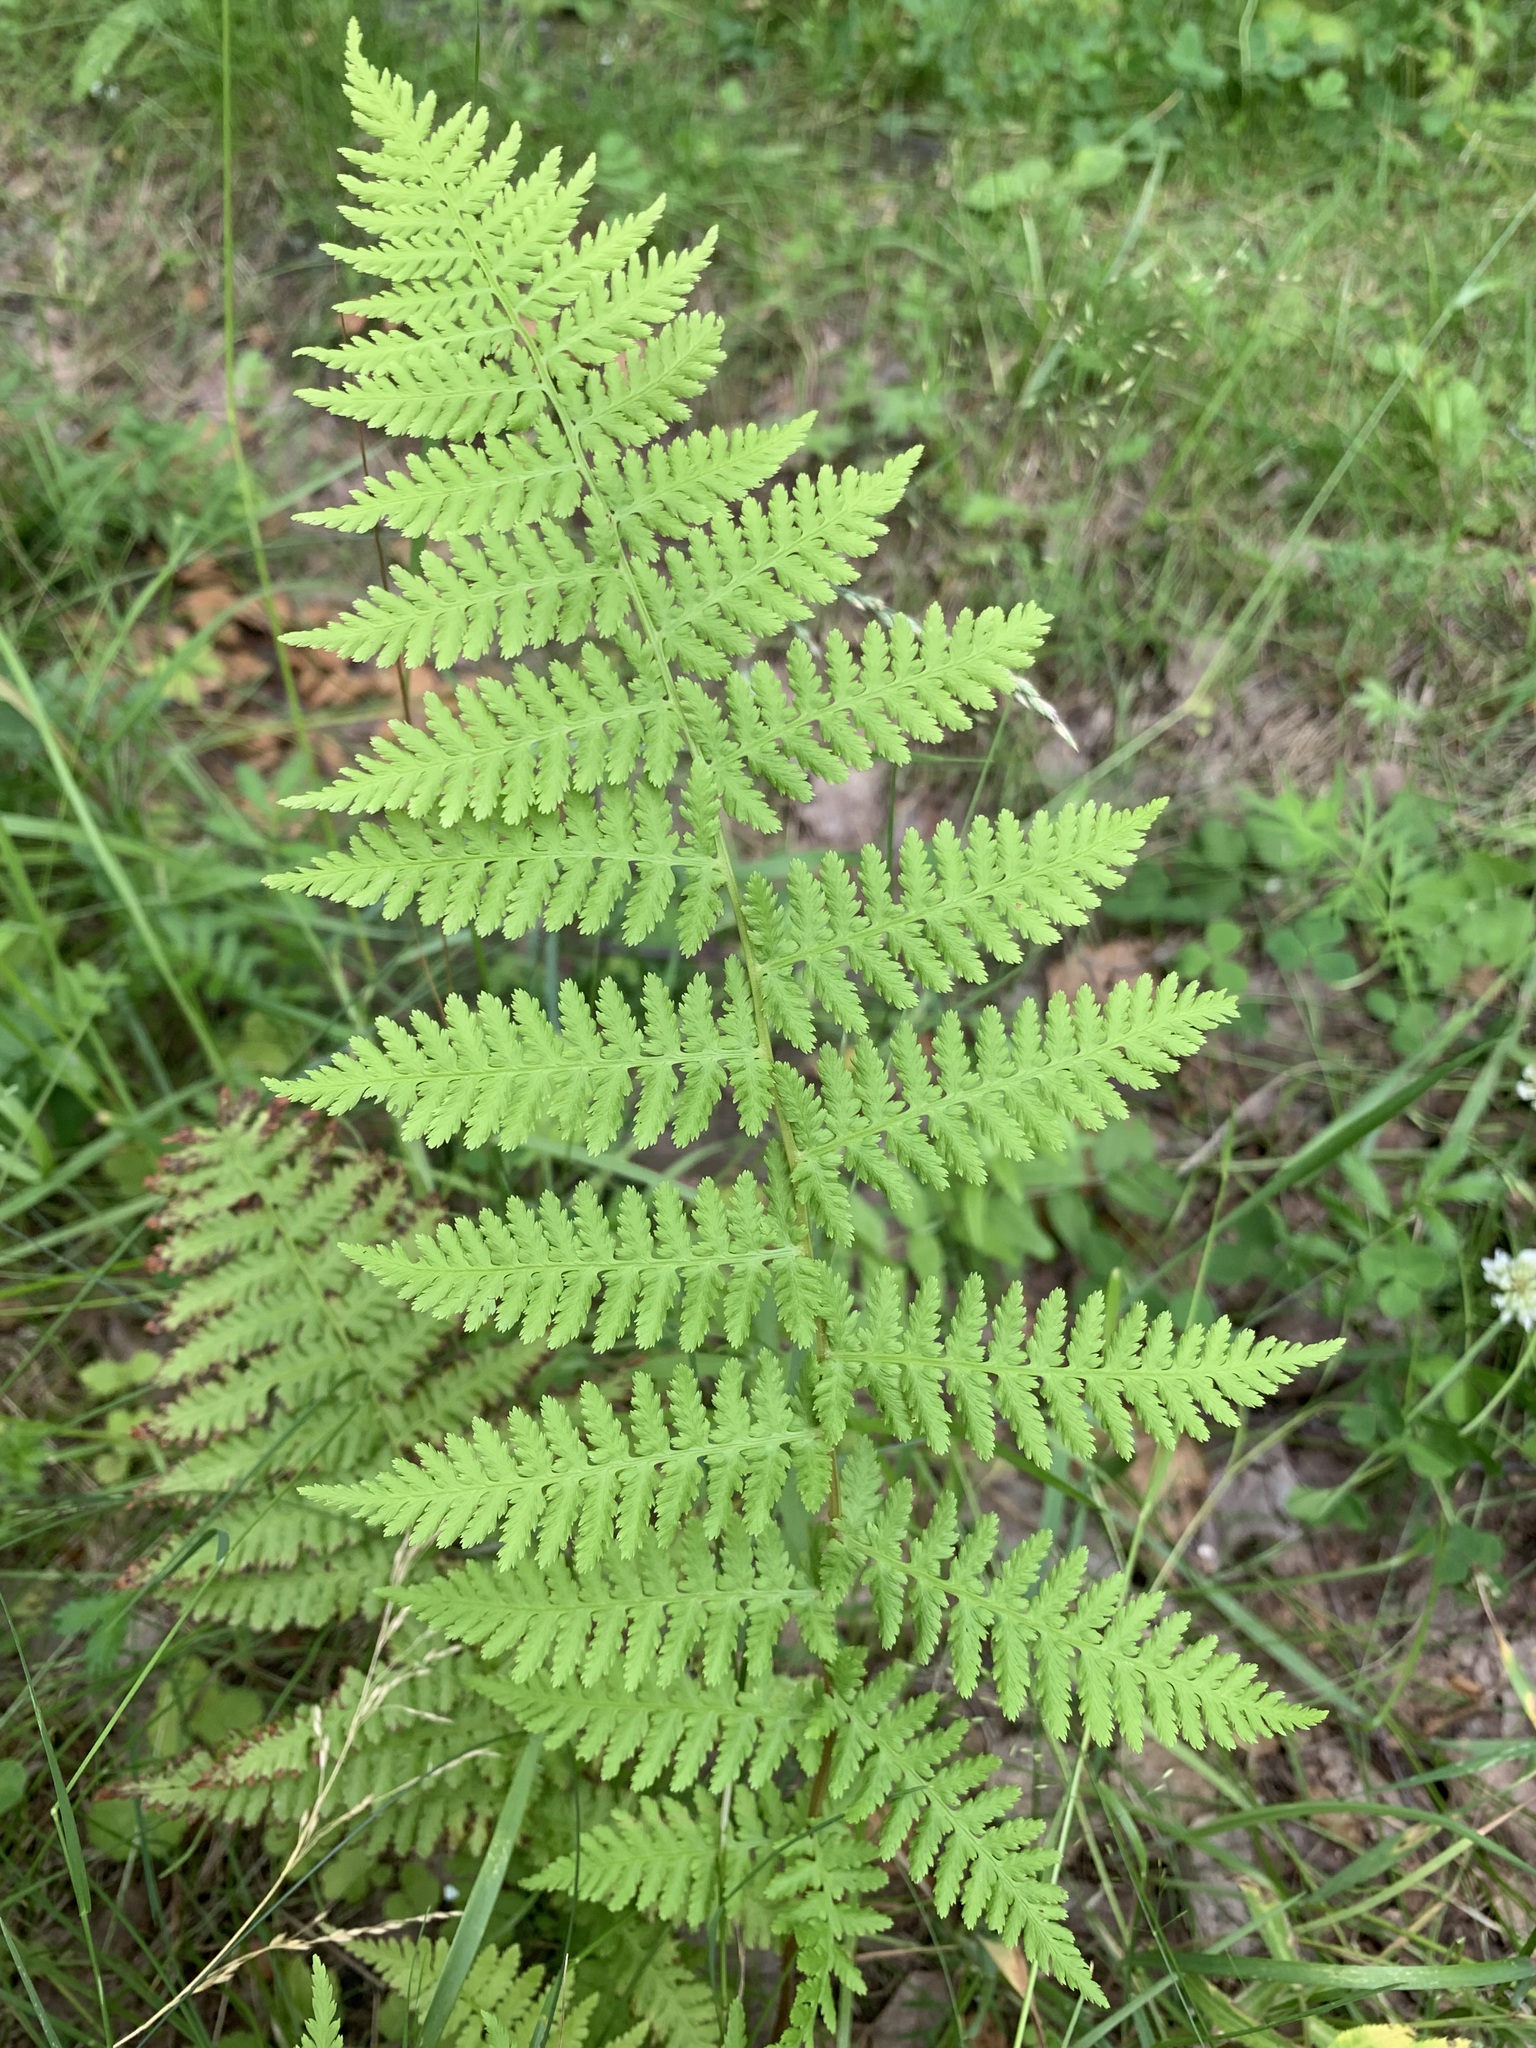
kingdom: Plantae
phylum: Tracheophyta
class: Polypodiopsida
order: Polypodiales
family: Athyriaceae
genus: Athyrium
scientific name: Athyrium filix-femina
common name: Lady fern
